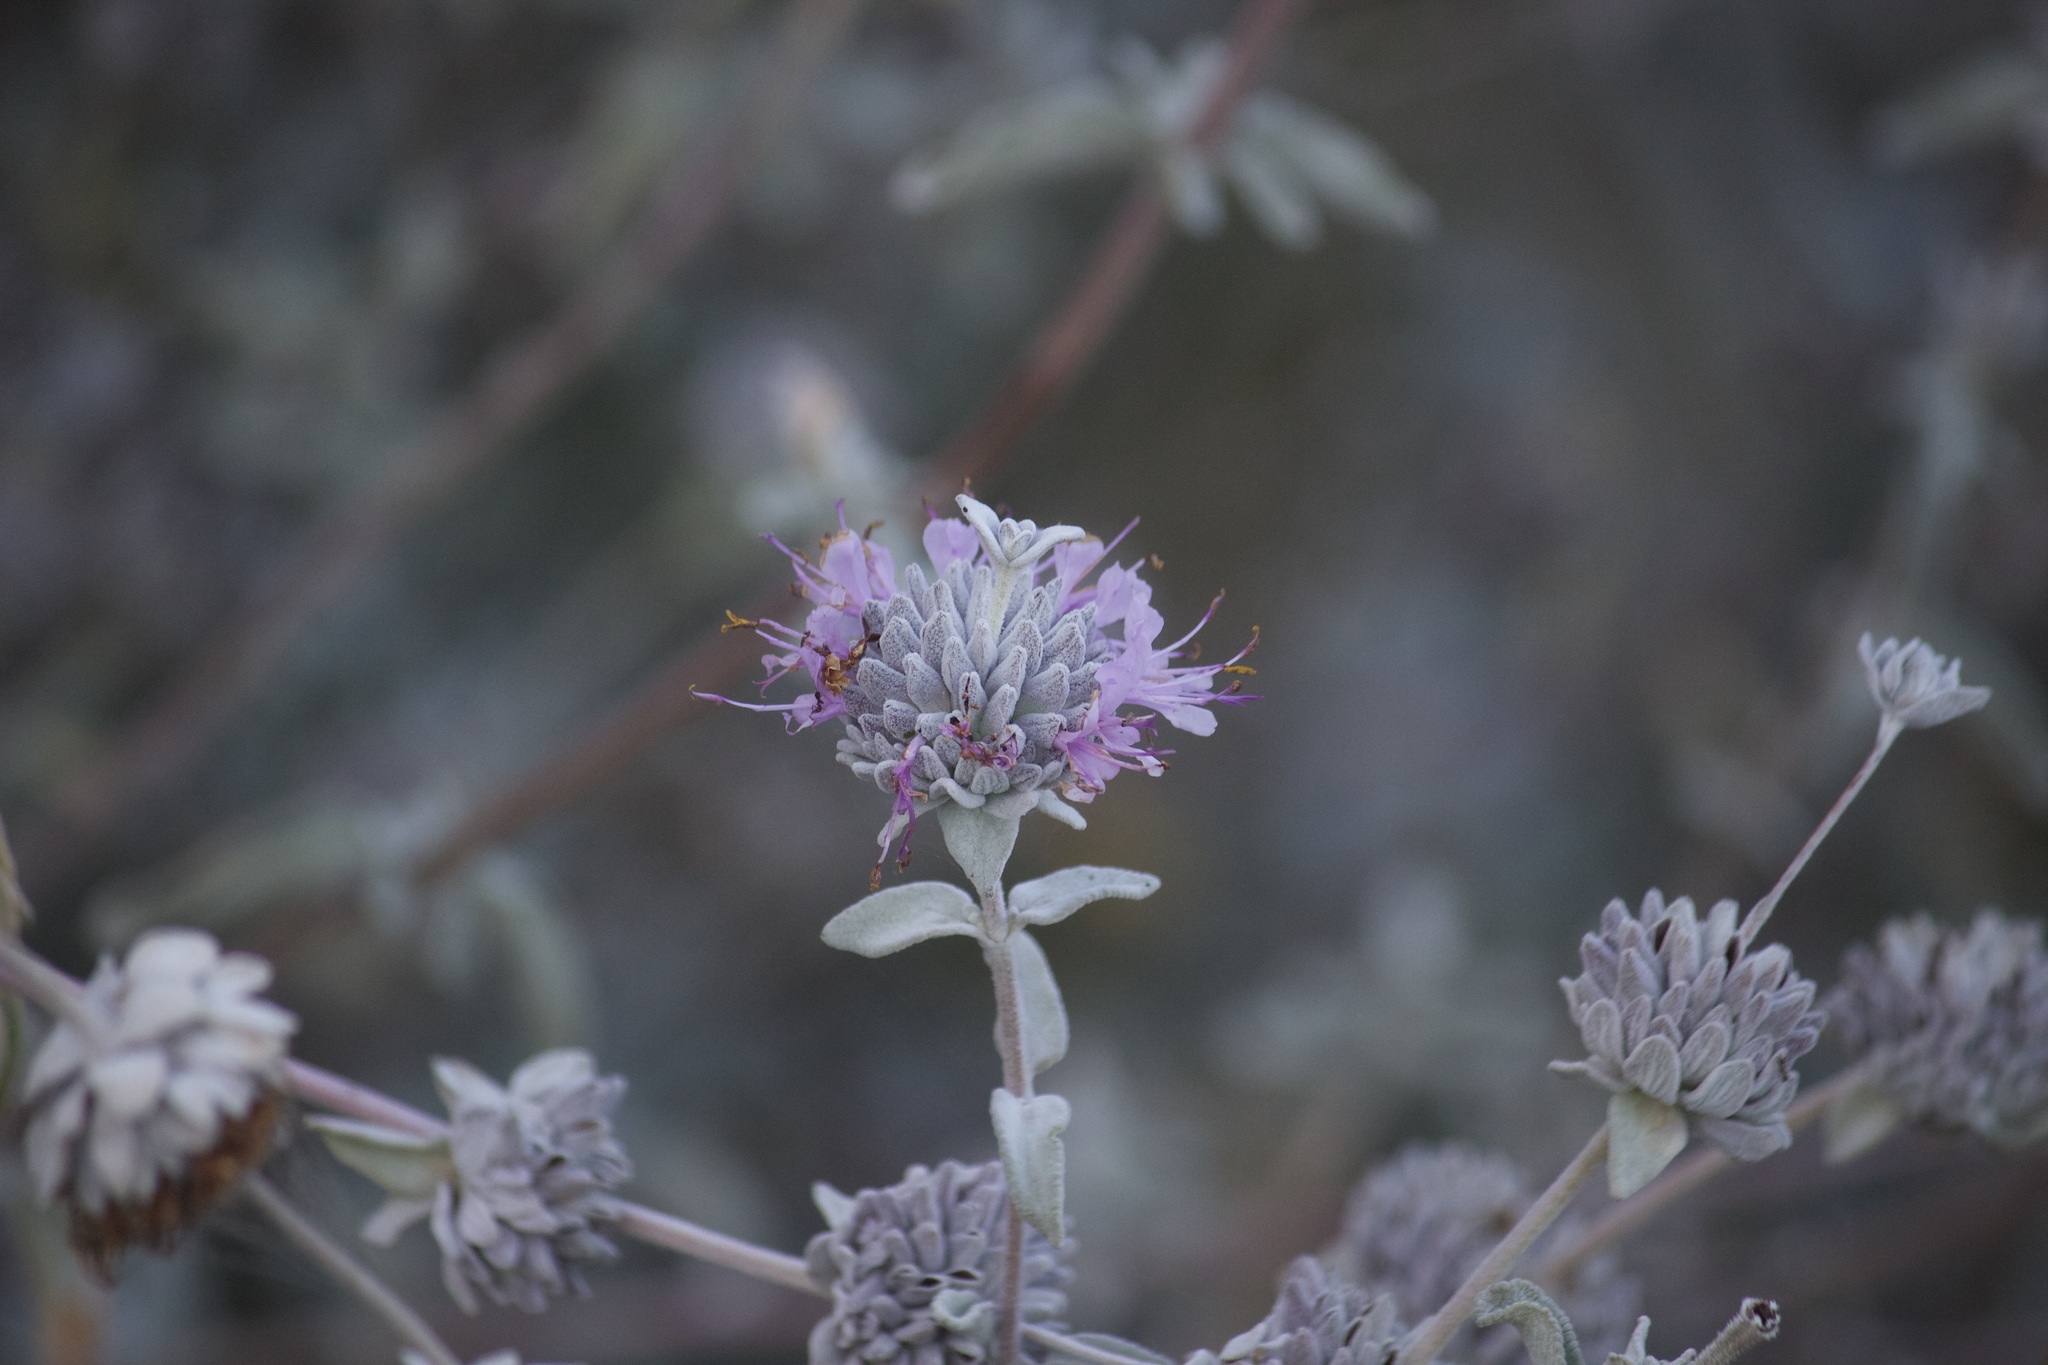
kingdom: Plantae
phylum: Tracheophyta
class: Magnoliopsida
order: Lamiales
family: Lamiaceae
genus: Salvia
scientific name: Salvia leucophylla
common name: Purple sage
